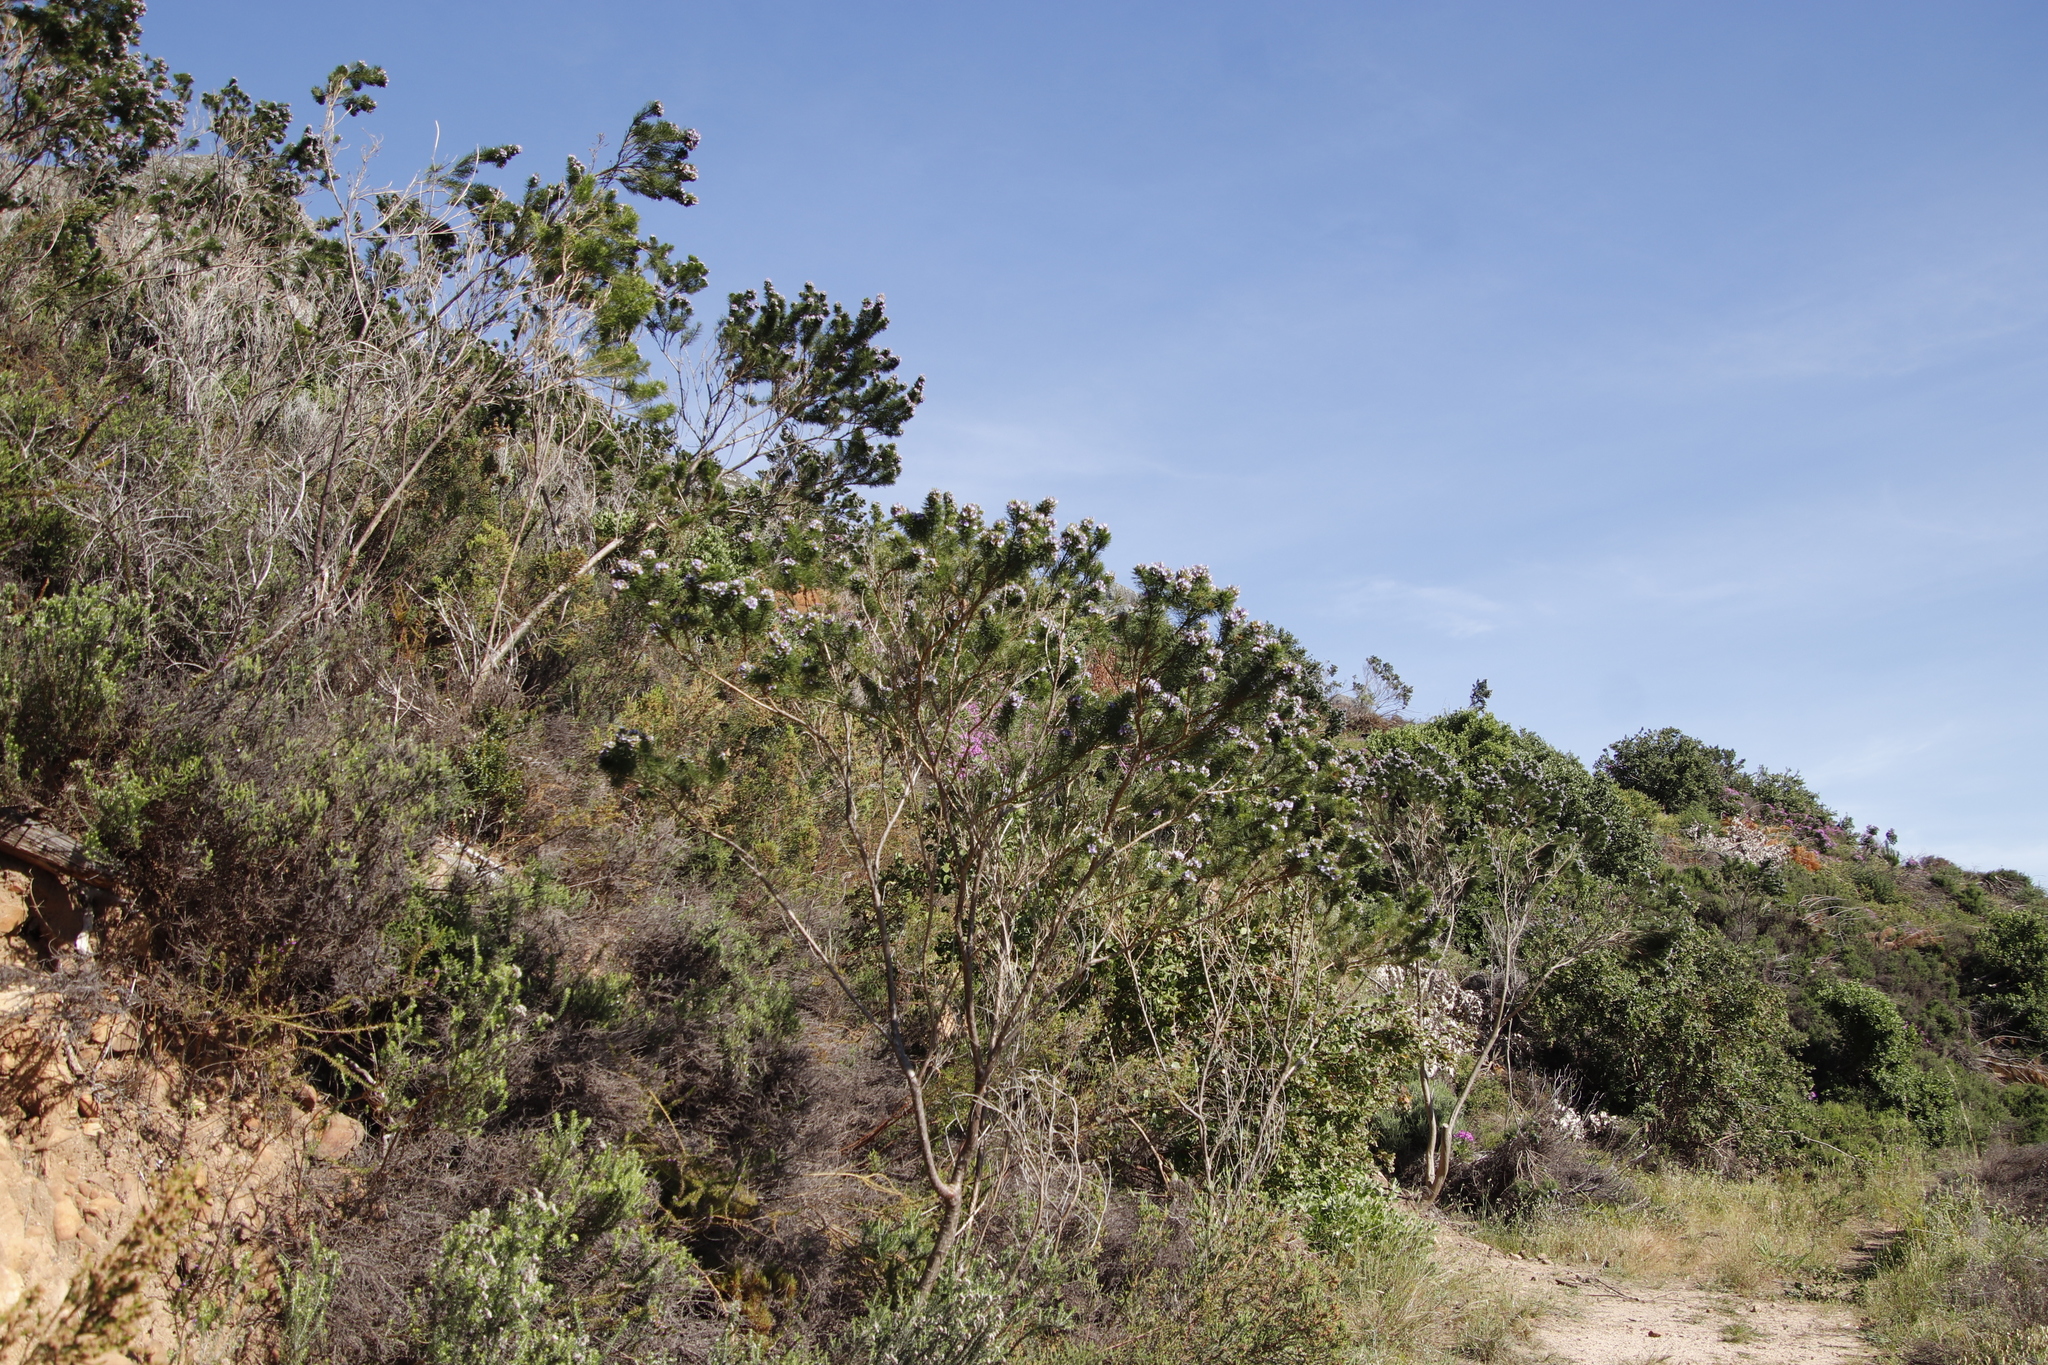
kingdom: Plantae
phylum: Tracheophyta
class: Magnoliopsida
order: Fabales
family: Fabaceae
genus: Psoralea
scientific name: Psoralea pinnata
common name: African scurfpea
